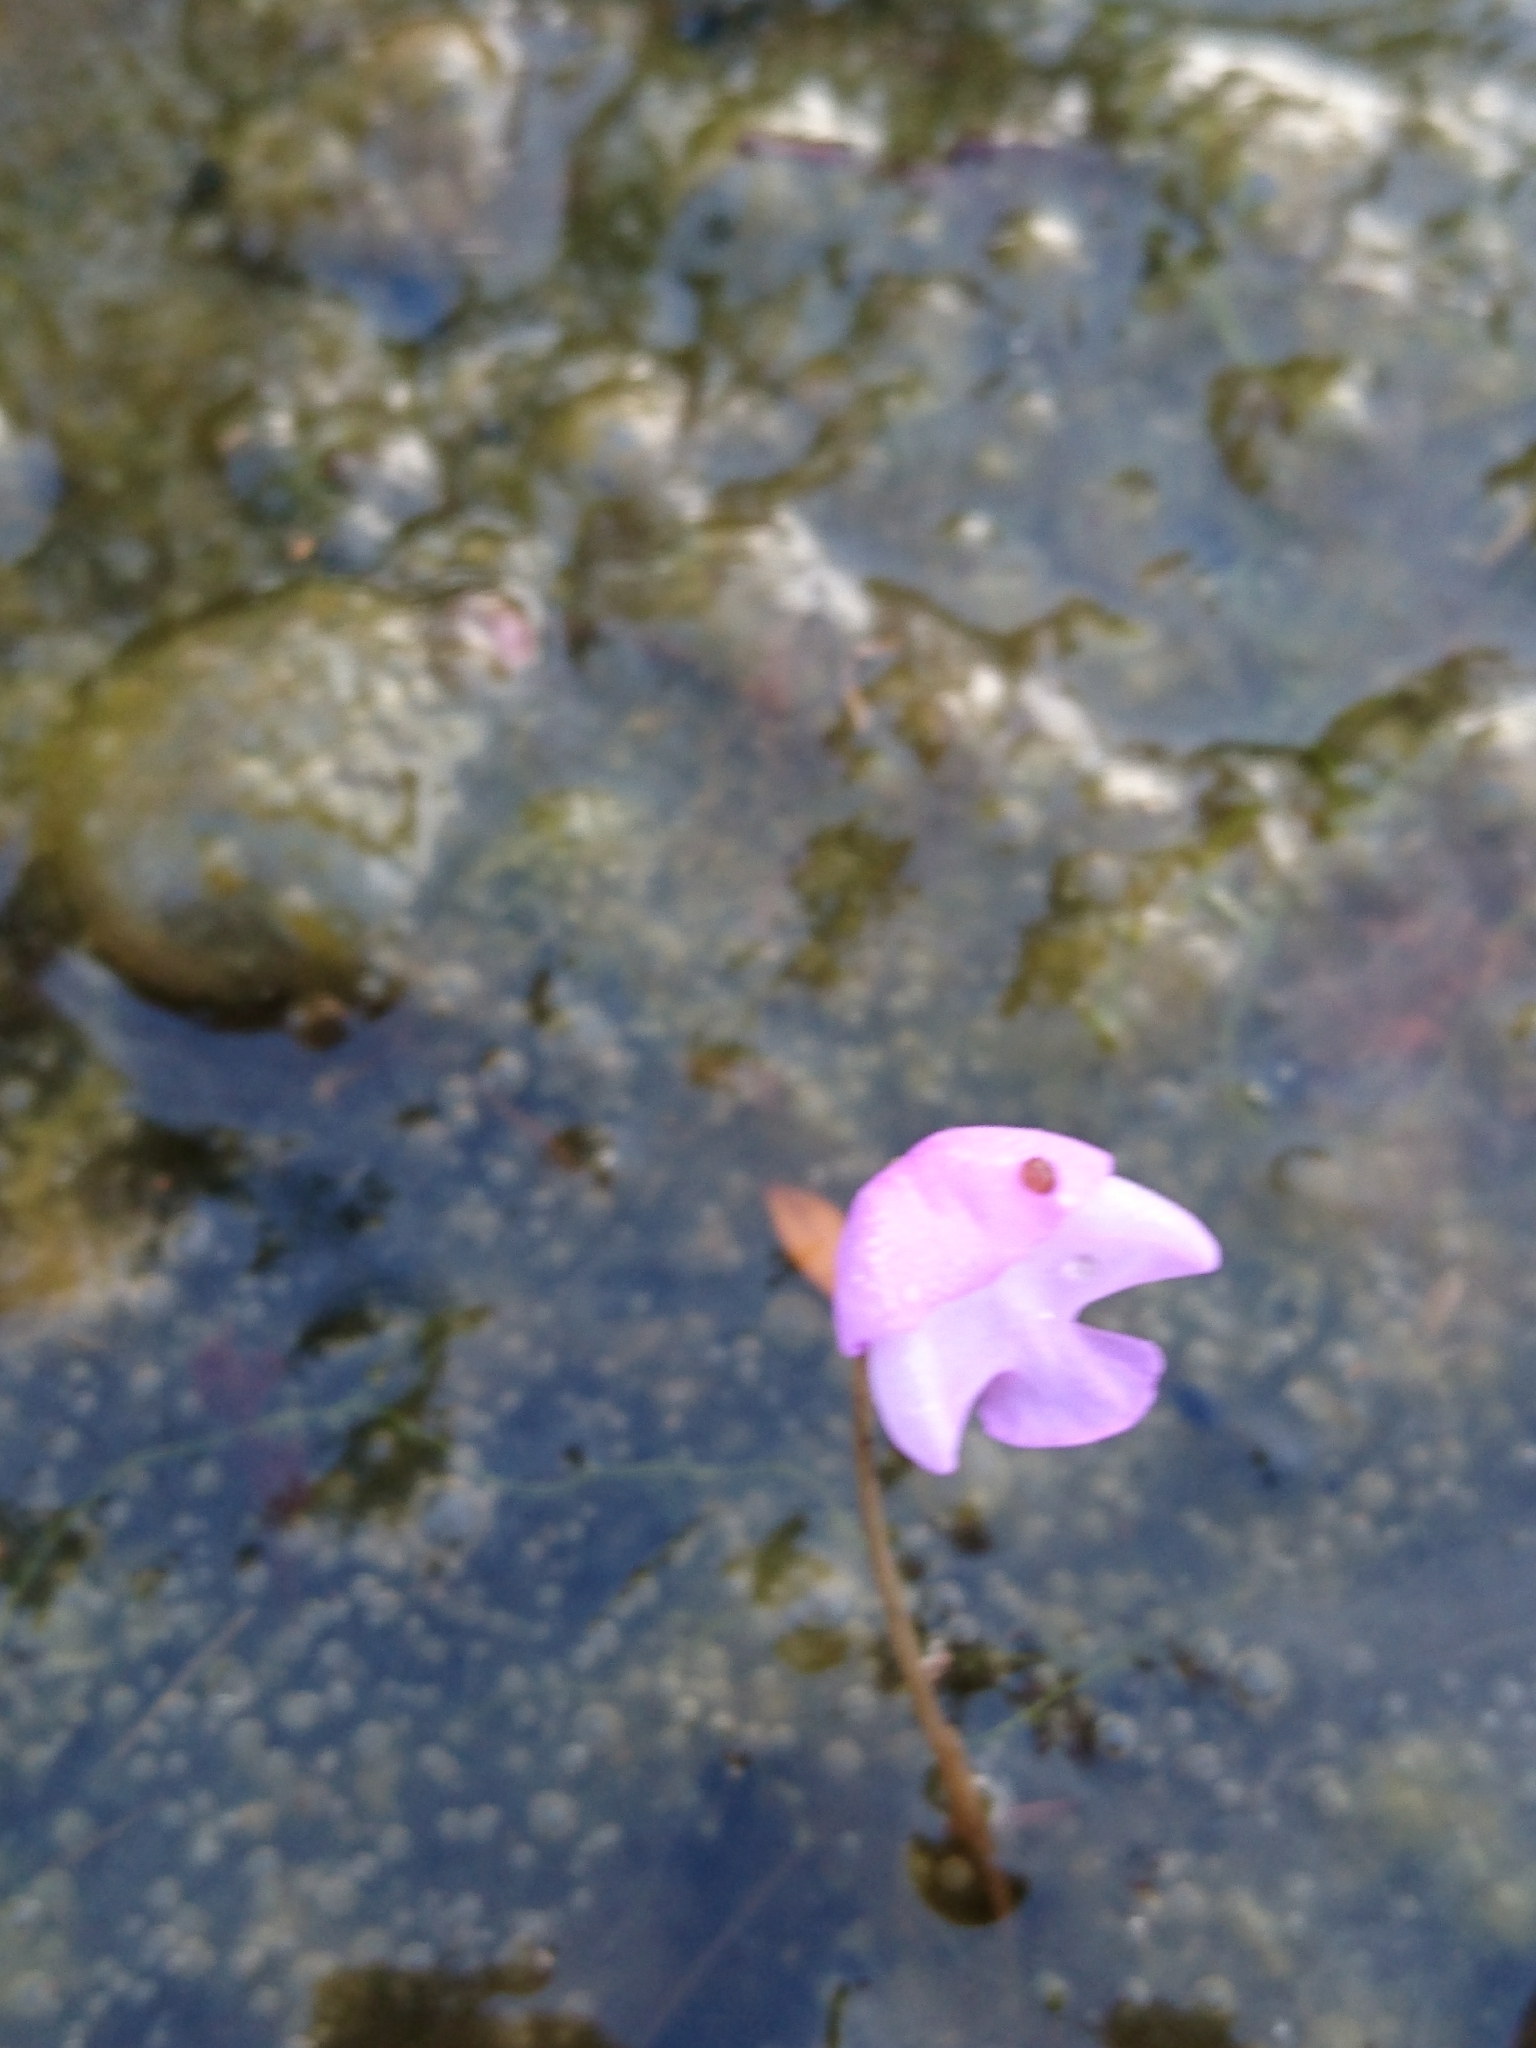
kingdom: Plantae
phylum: Tracheophyta
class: Magnoliopsida
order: Lamiales
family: Lentibulariaceae
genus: Utricularia
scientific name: Utricularia purpurea
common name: Eastern purple bladderwort
